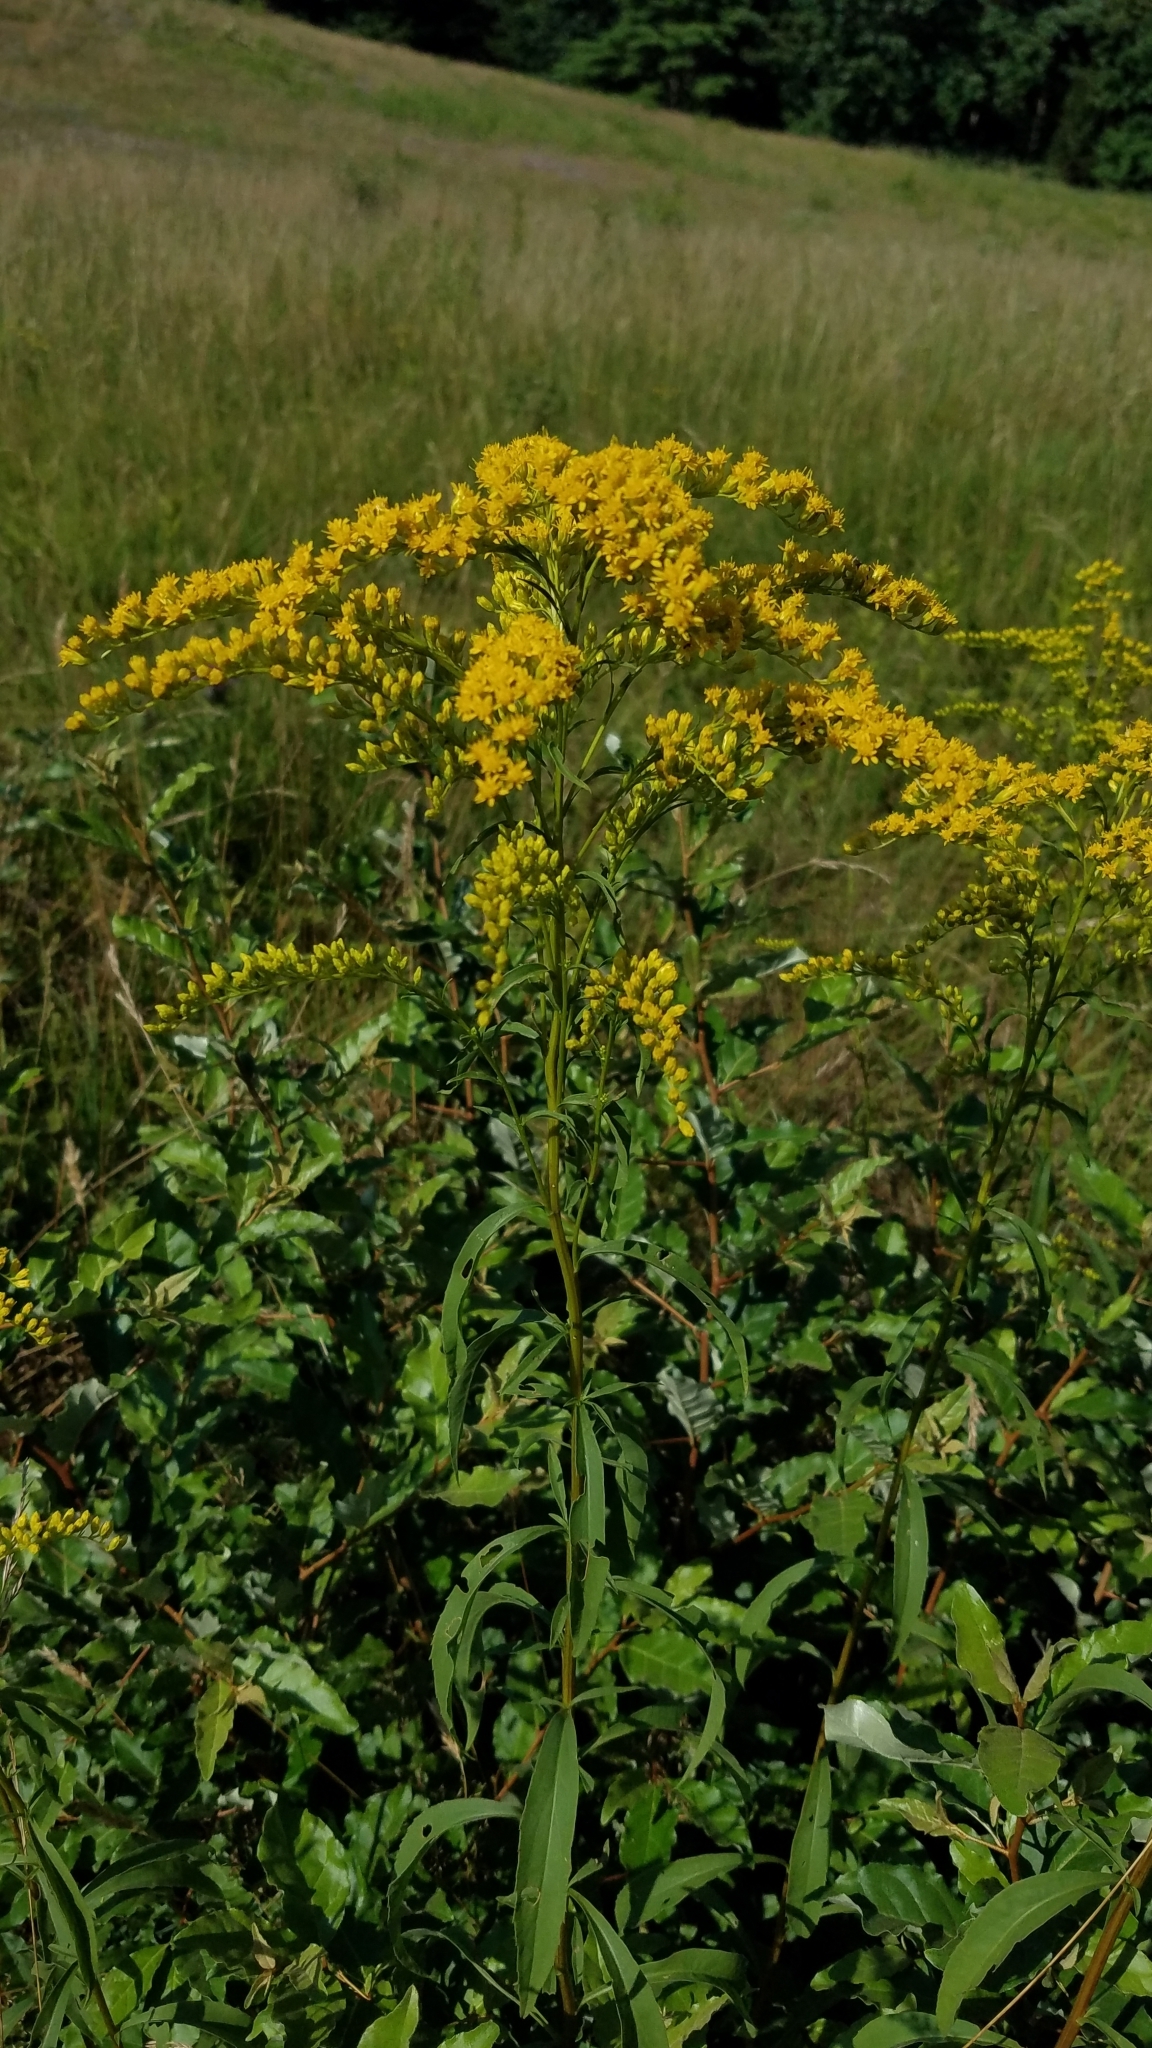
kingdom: Plantae
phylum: Tracheophyta
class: Magnoliopsida
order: Asterales
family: Asteraceae
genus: Solidago
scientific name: Solidago juncea
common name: Early goldenrod
